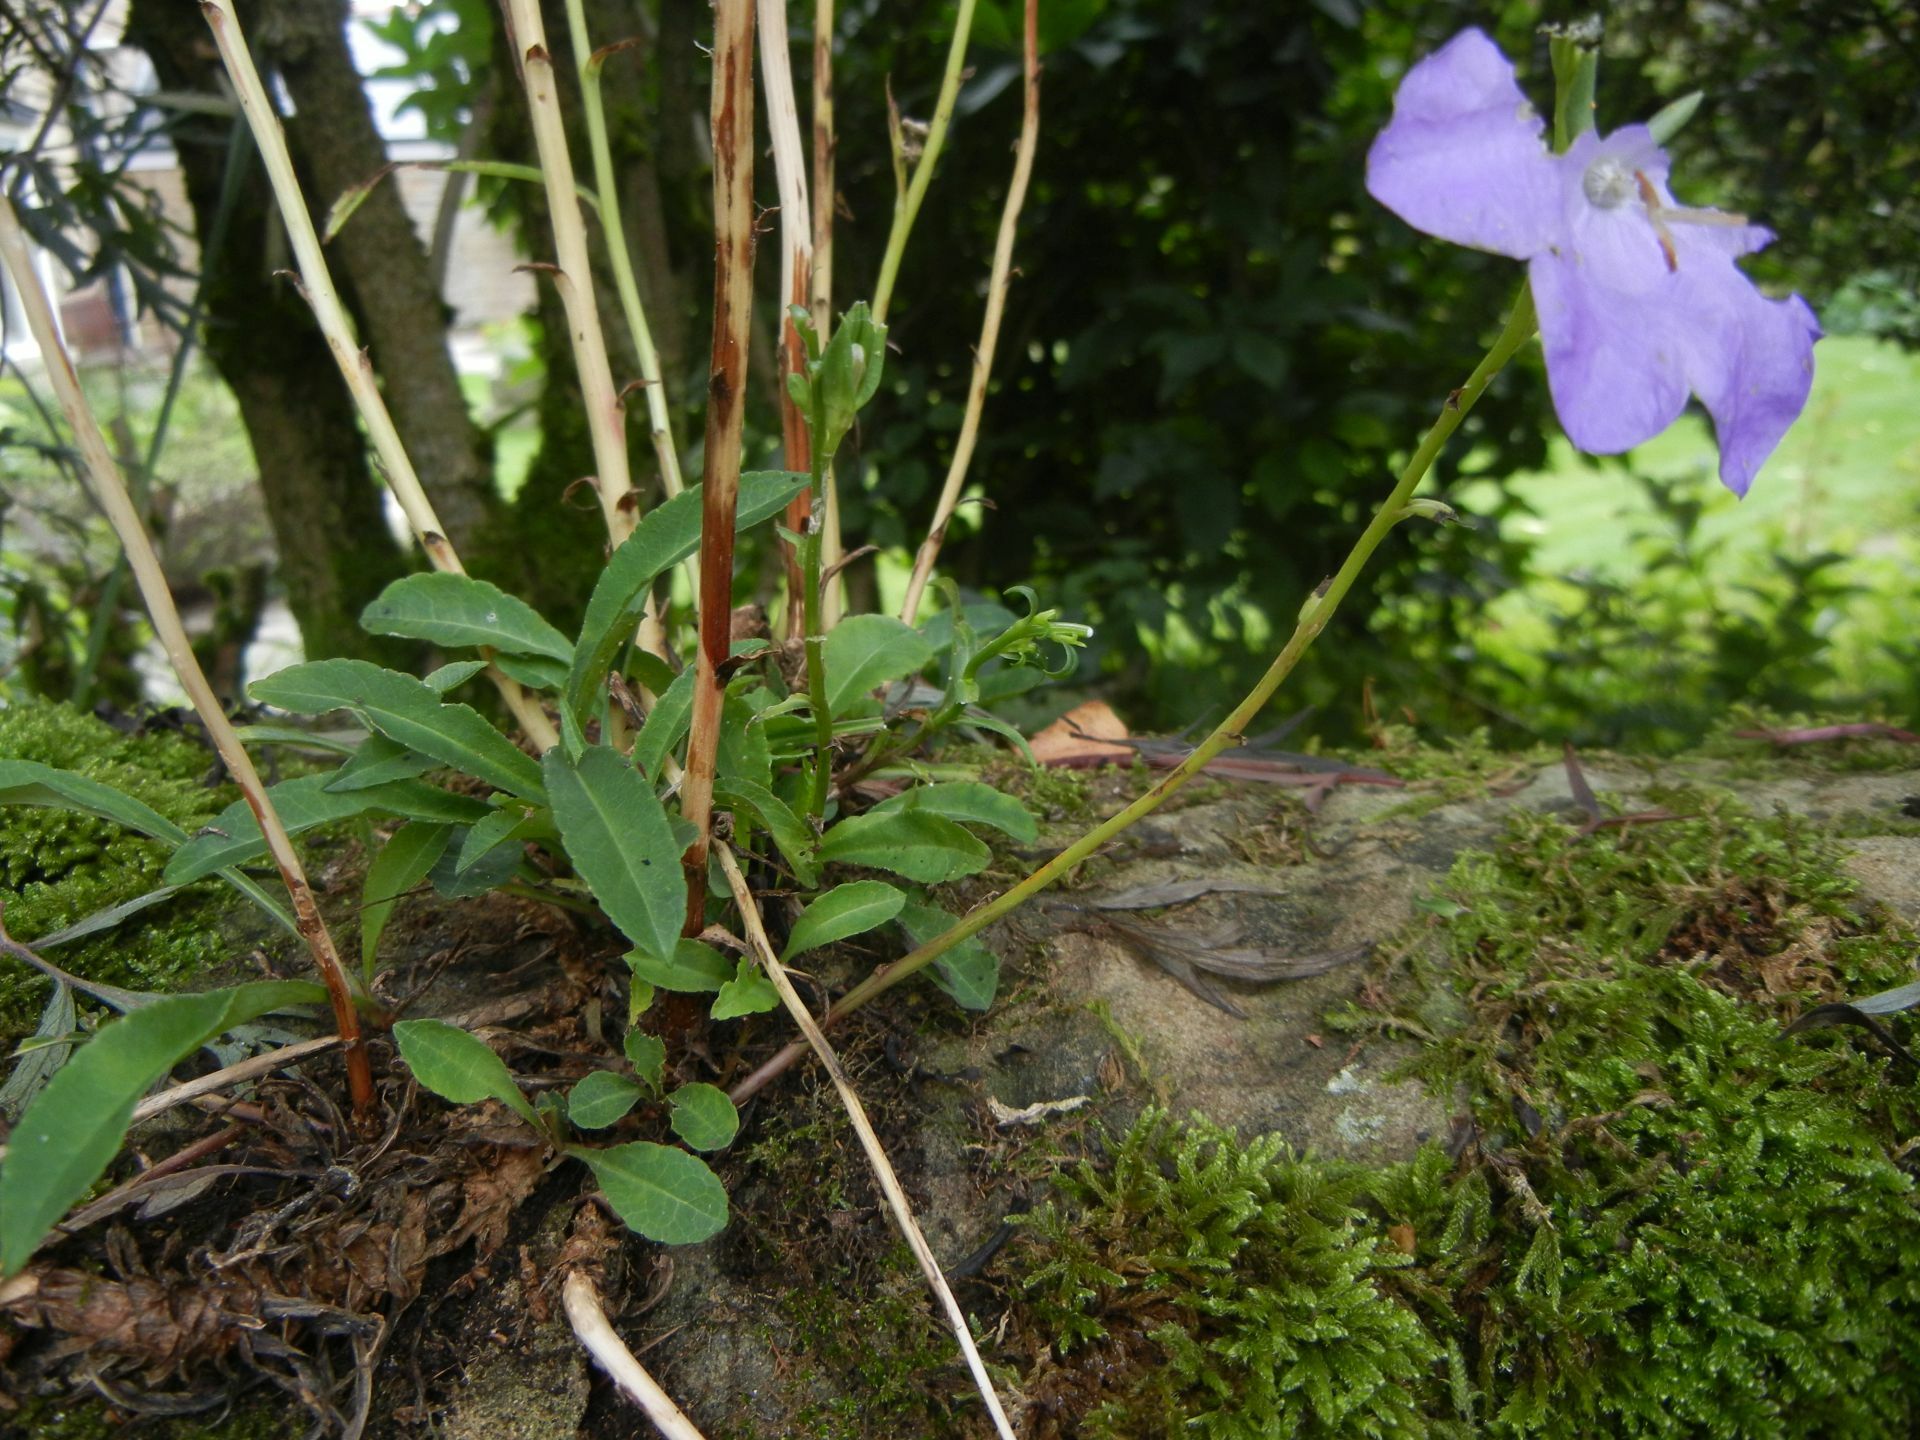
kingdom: Plantae
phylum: Tracheophyta
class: Magnoliopsida
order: Asterales
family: Campanulaceae
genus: Campanula
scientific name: Campanula persicifolia
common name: Peach-leaved bellflower
